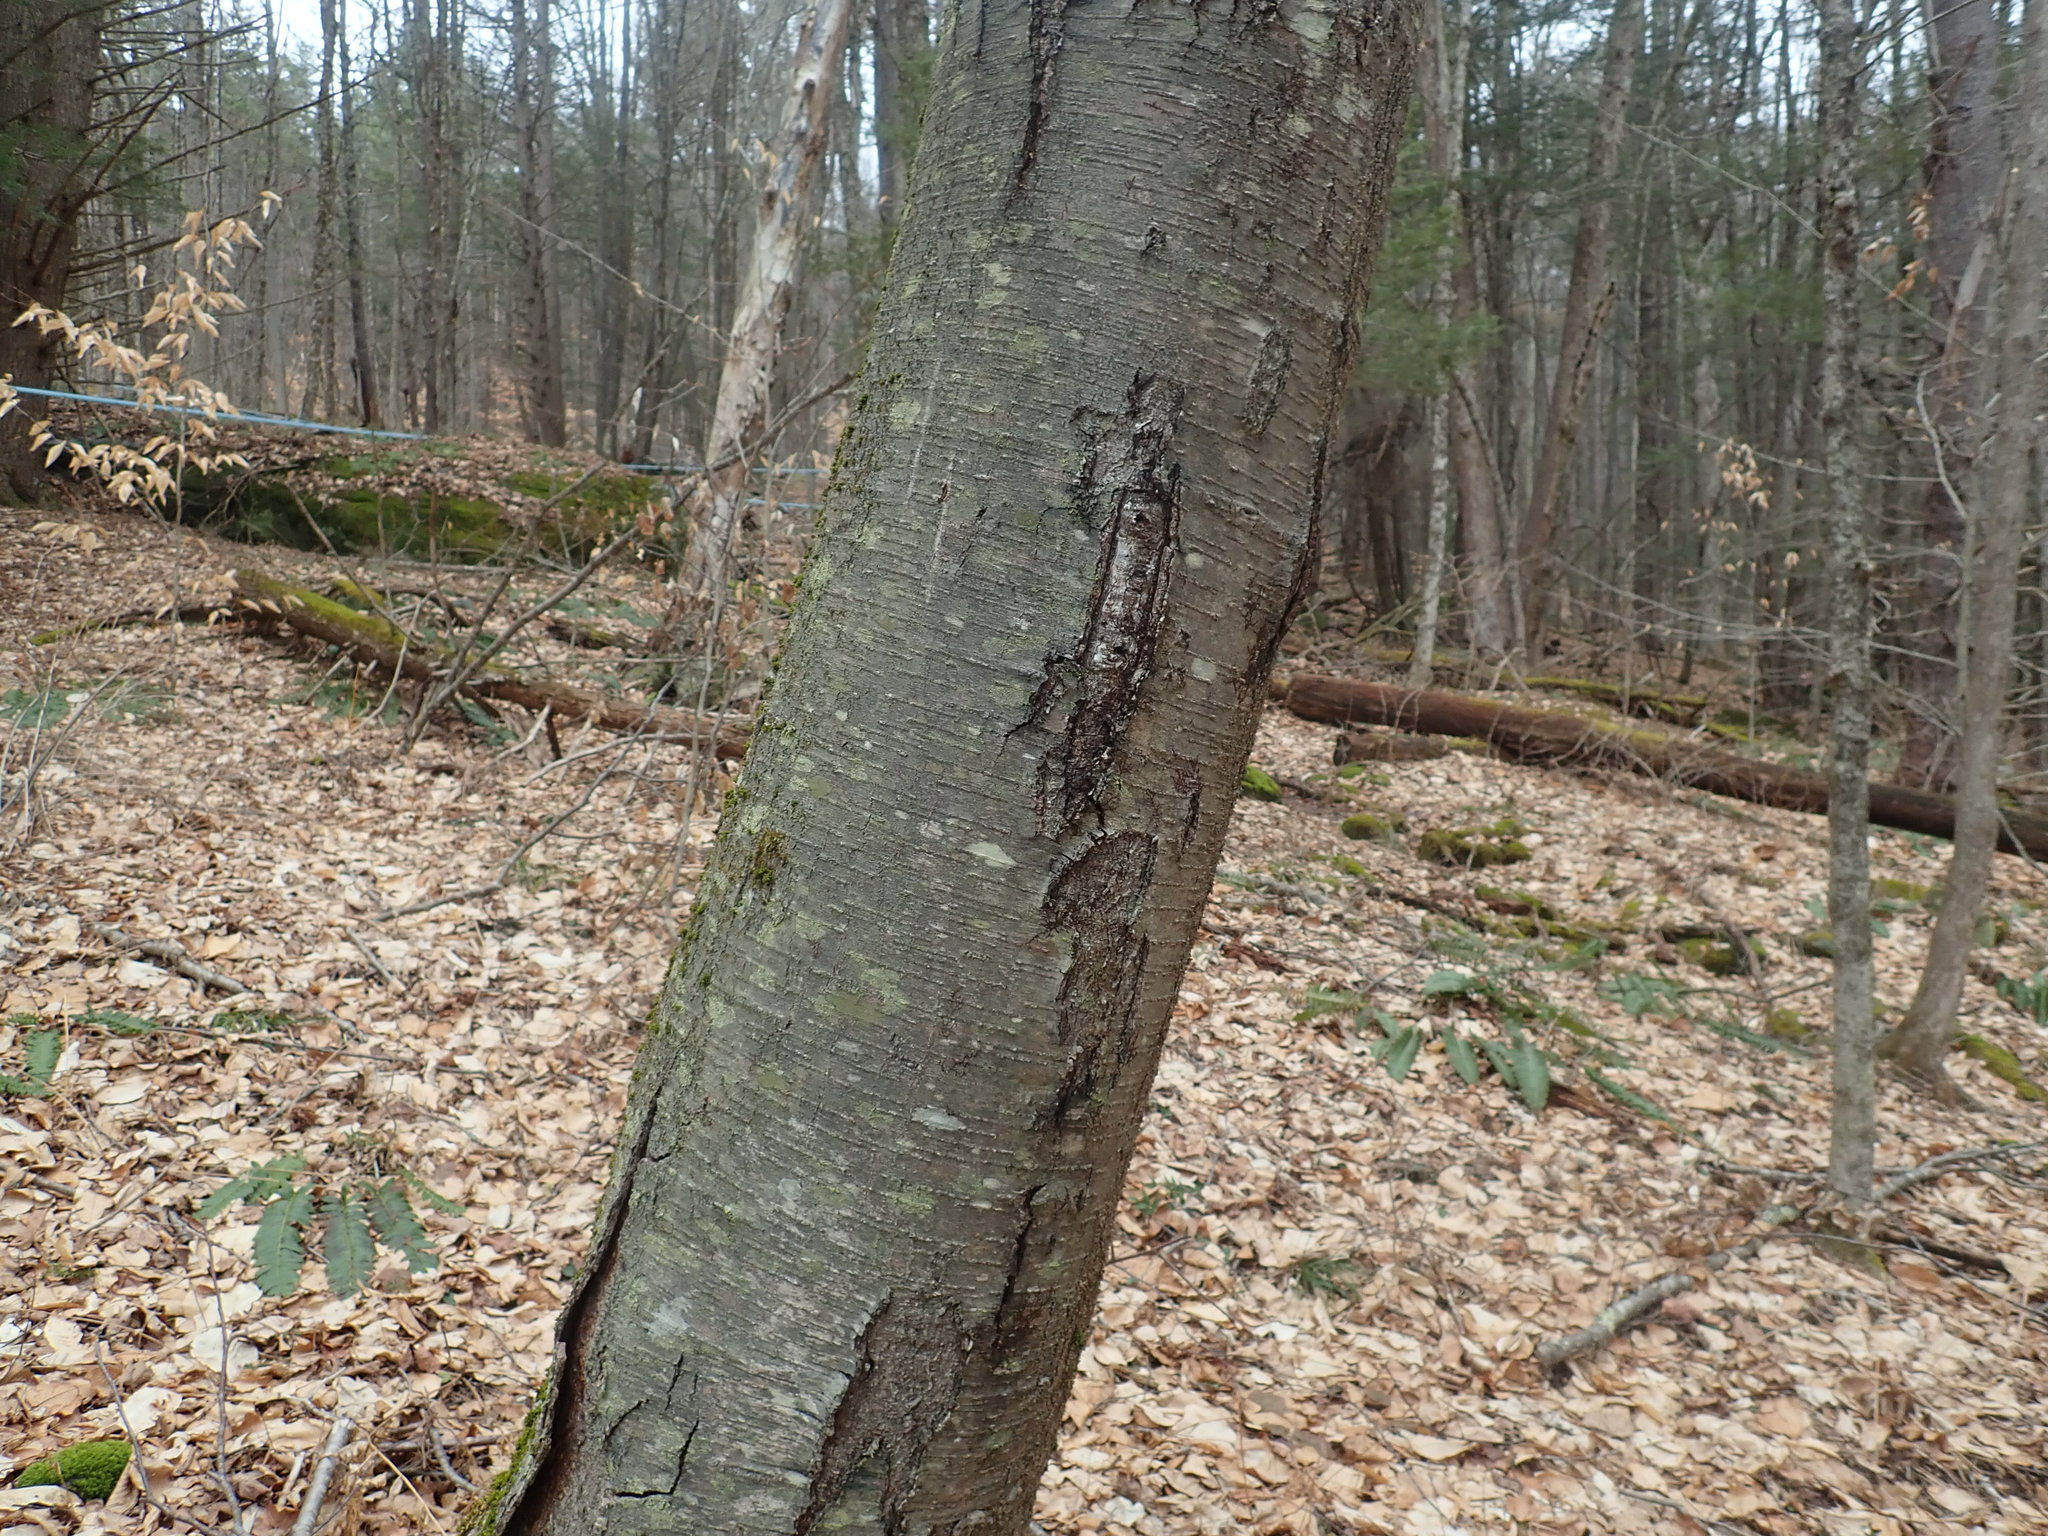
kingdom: Plantae
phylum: Tracheophyta
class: Magnoliopsida
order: Fagales
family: Betulaceae
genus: Betula
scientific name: Betula lenta
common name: Black birch
